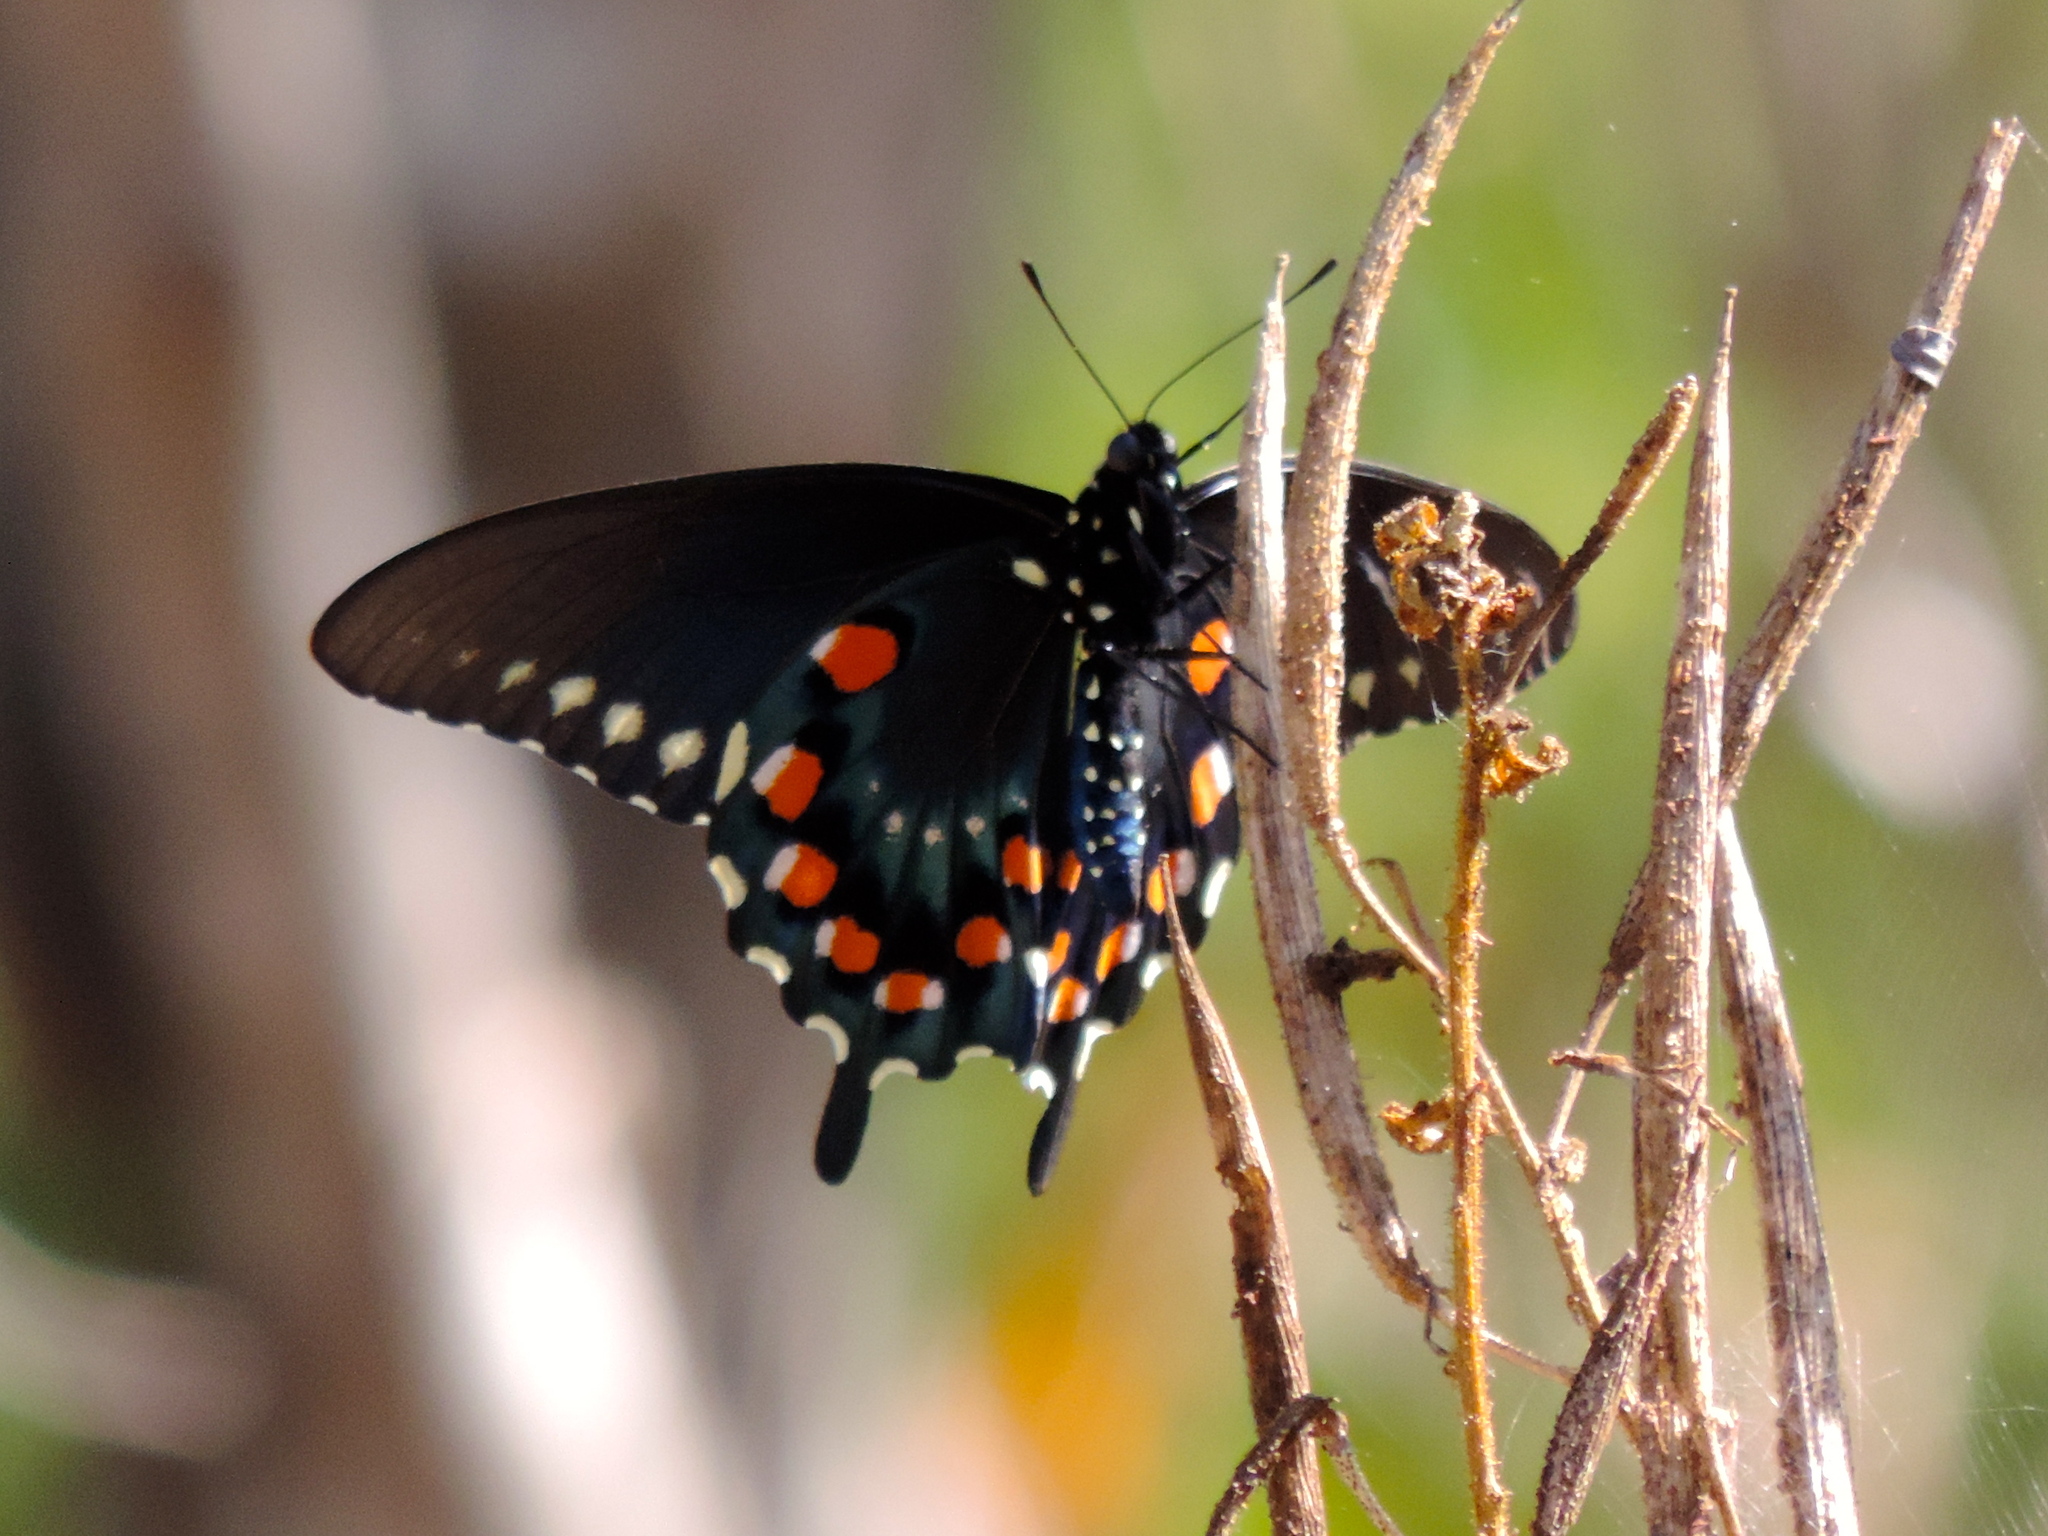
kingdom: Animalia
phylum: Arthropoda
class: Insecta
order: Lepidoptera
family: Papilionidae
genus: Battus
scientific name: Battus philenor
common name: Pipevine swallowtail
